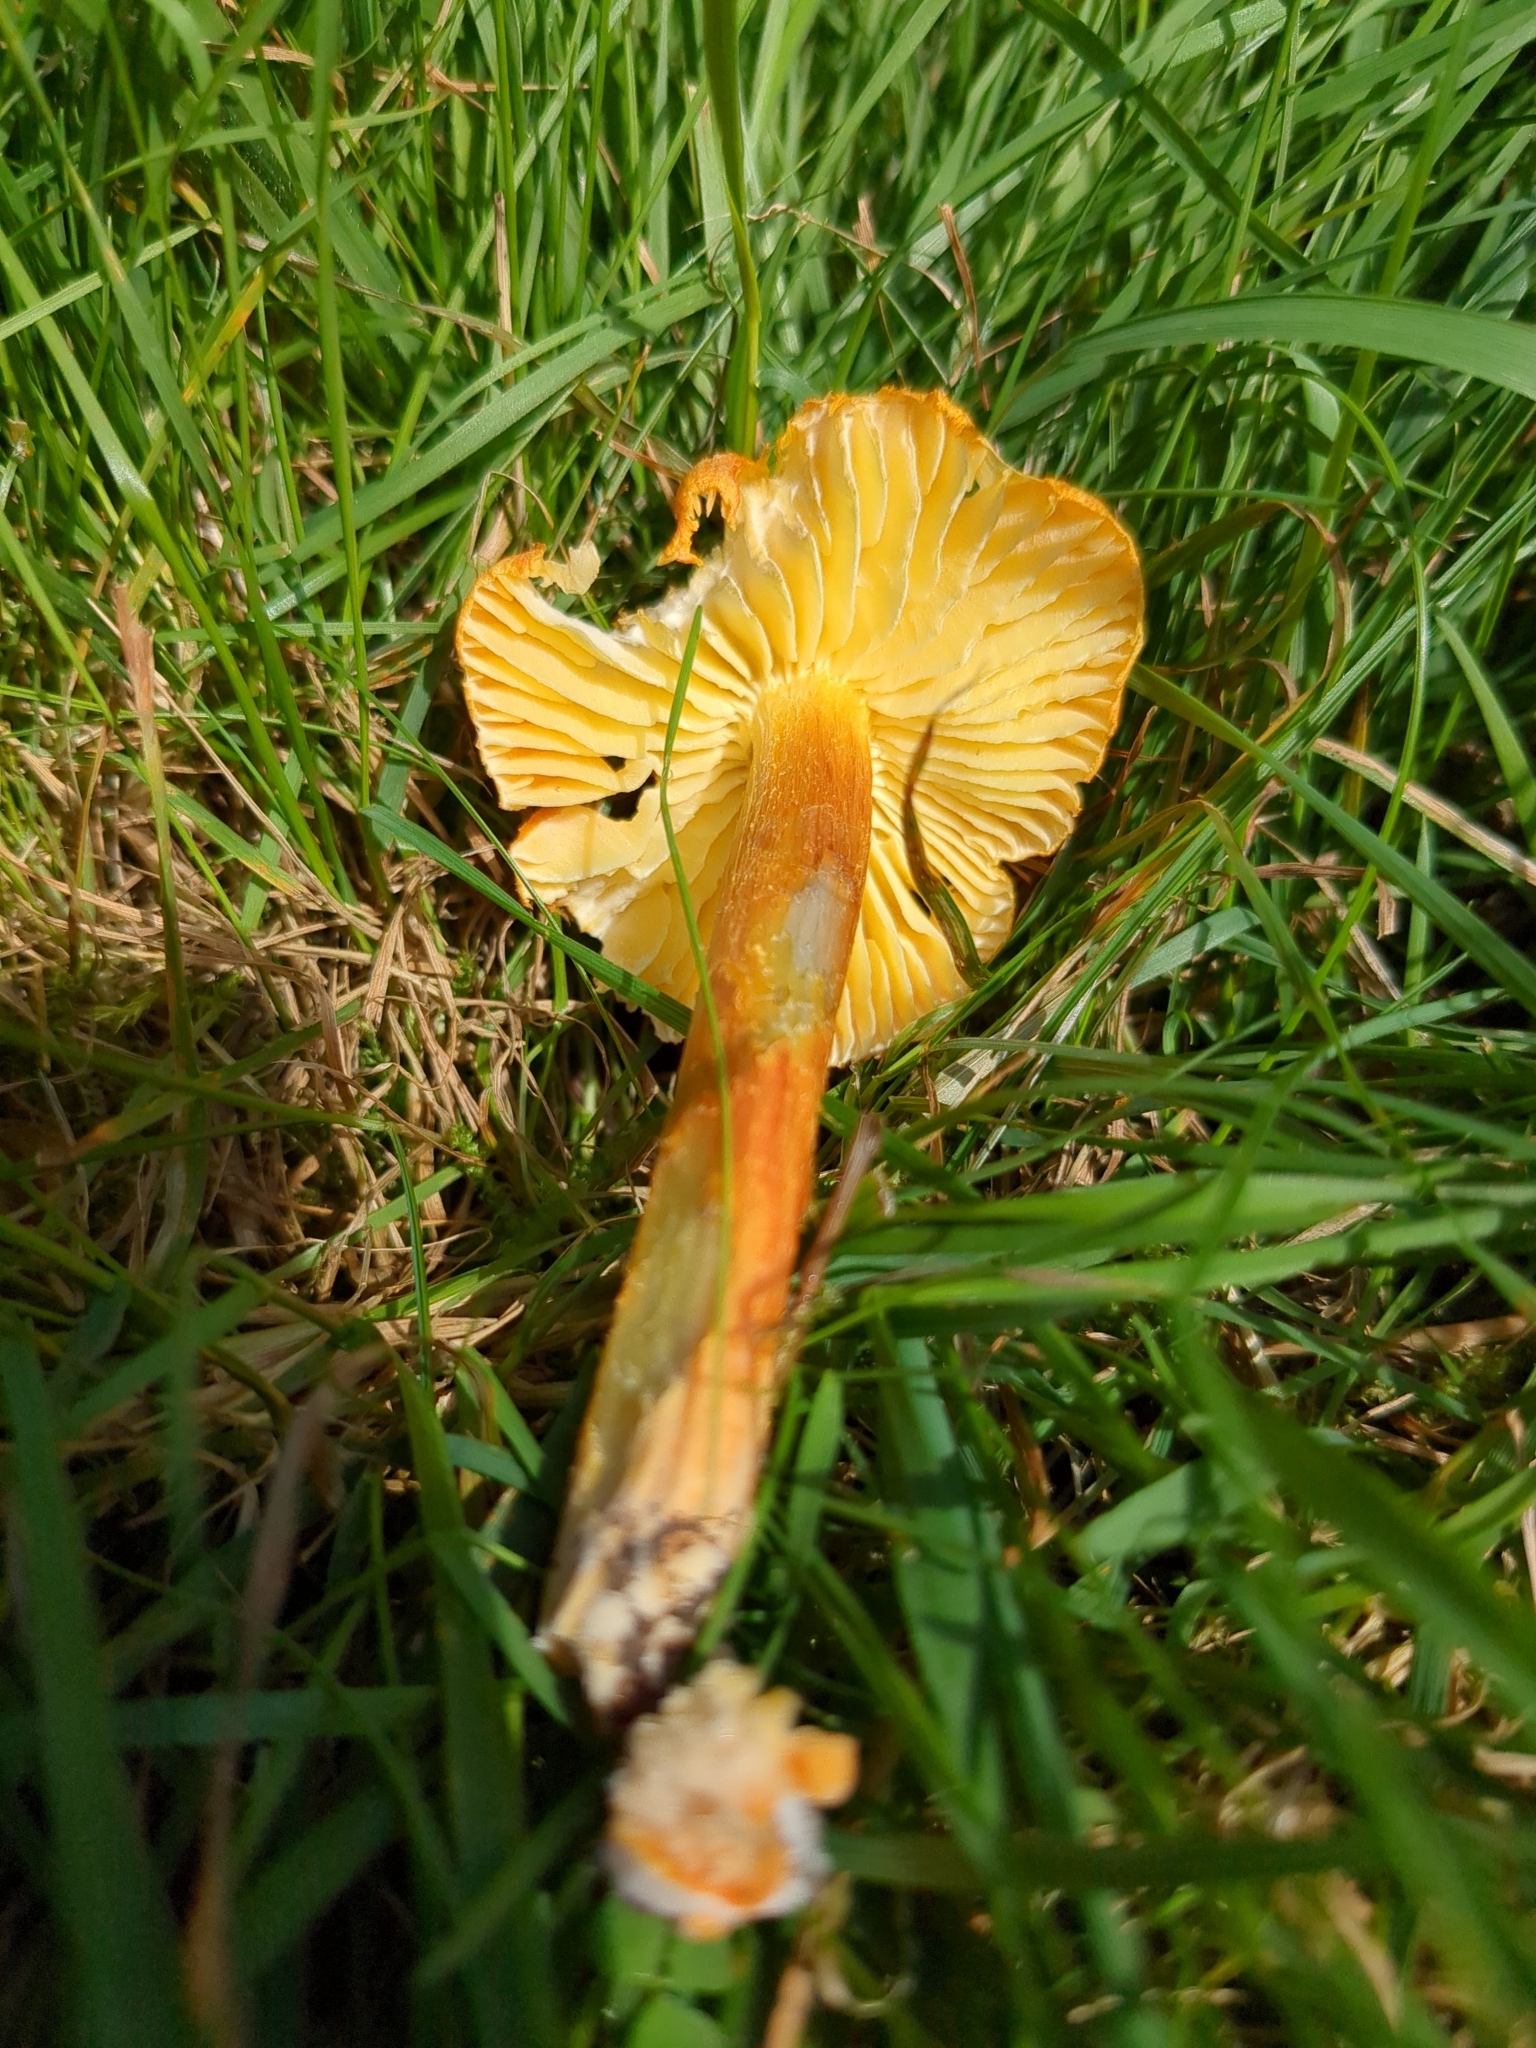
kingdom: Fungi
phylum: Basidiomycota
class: Agaricomycetes
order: Agaricales
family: Hygrophoraceae
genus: Hygrocybe
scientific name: Hygrocybe intermedia
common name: Fibrous waxcap
